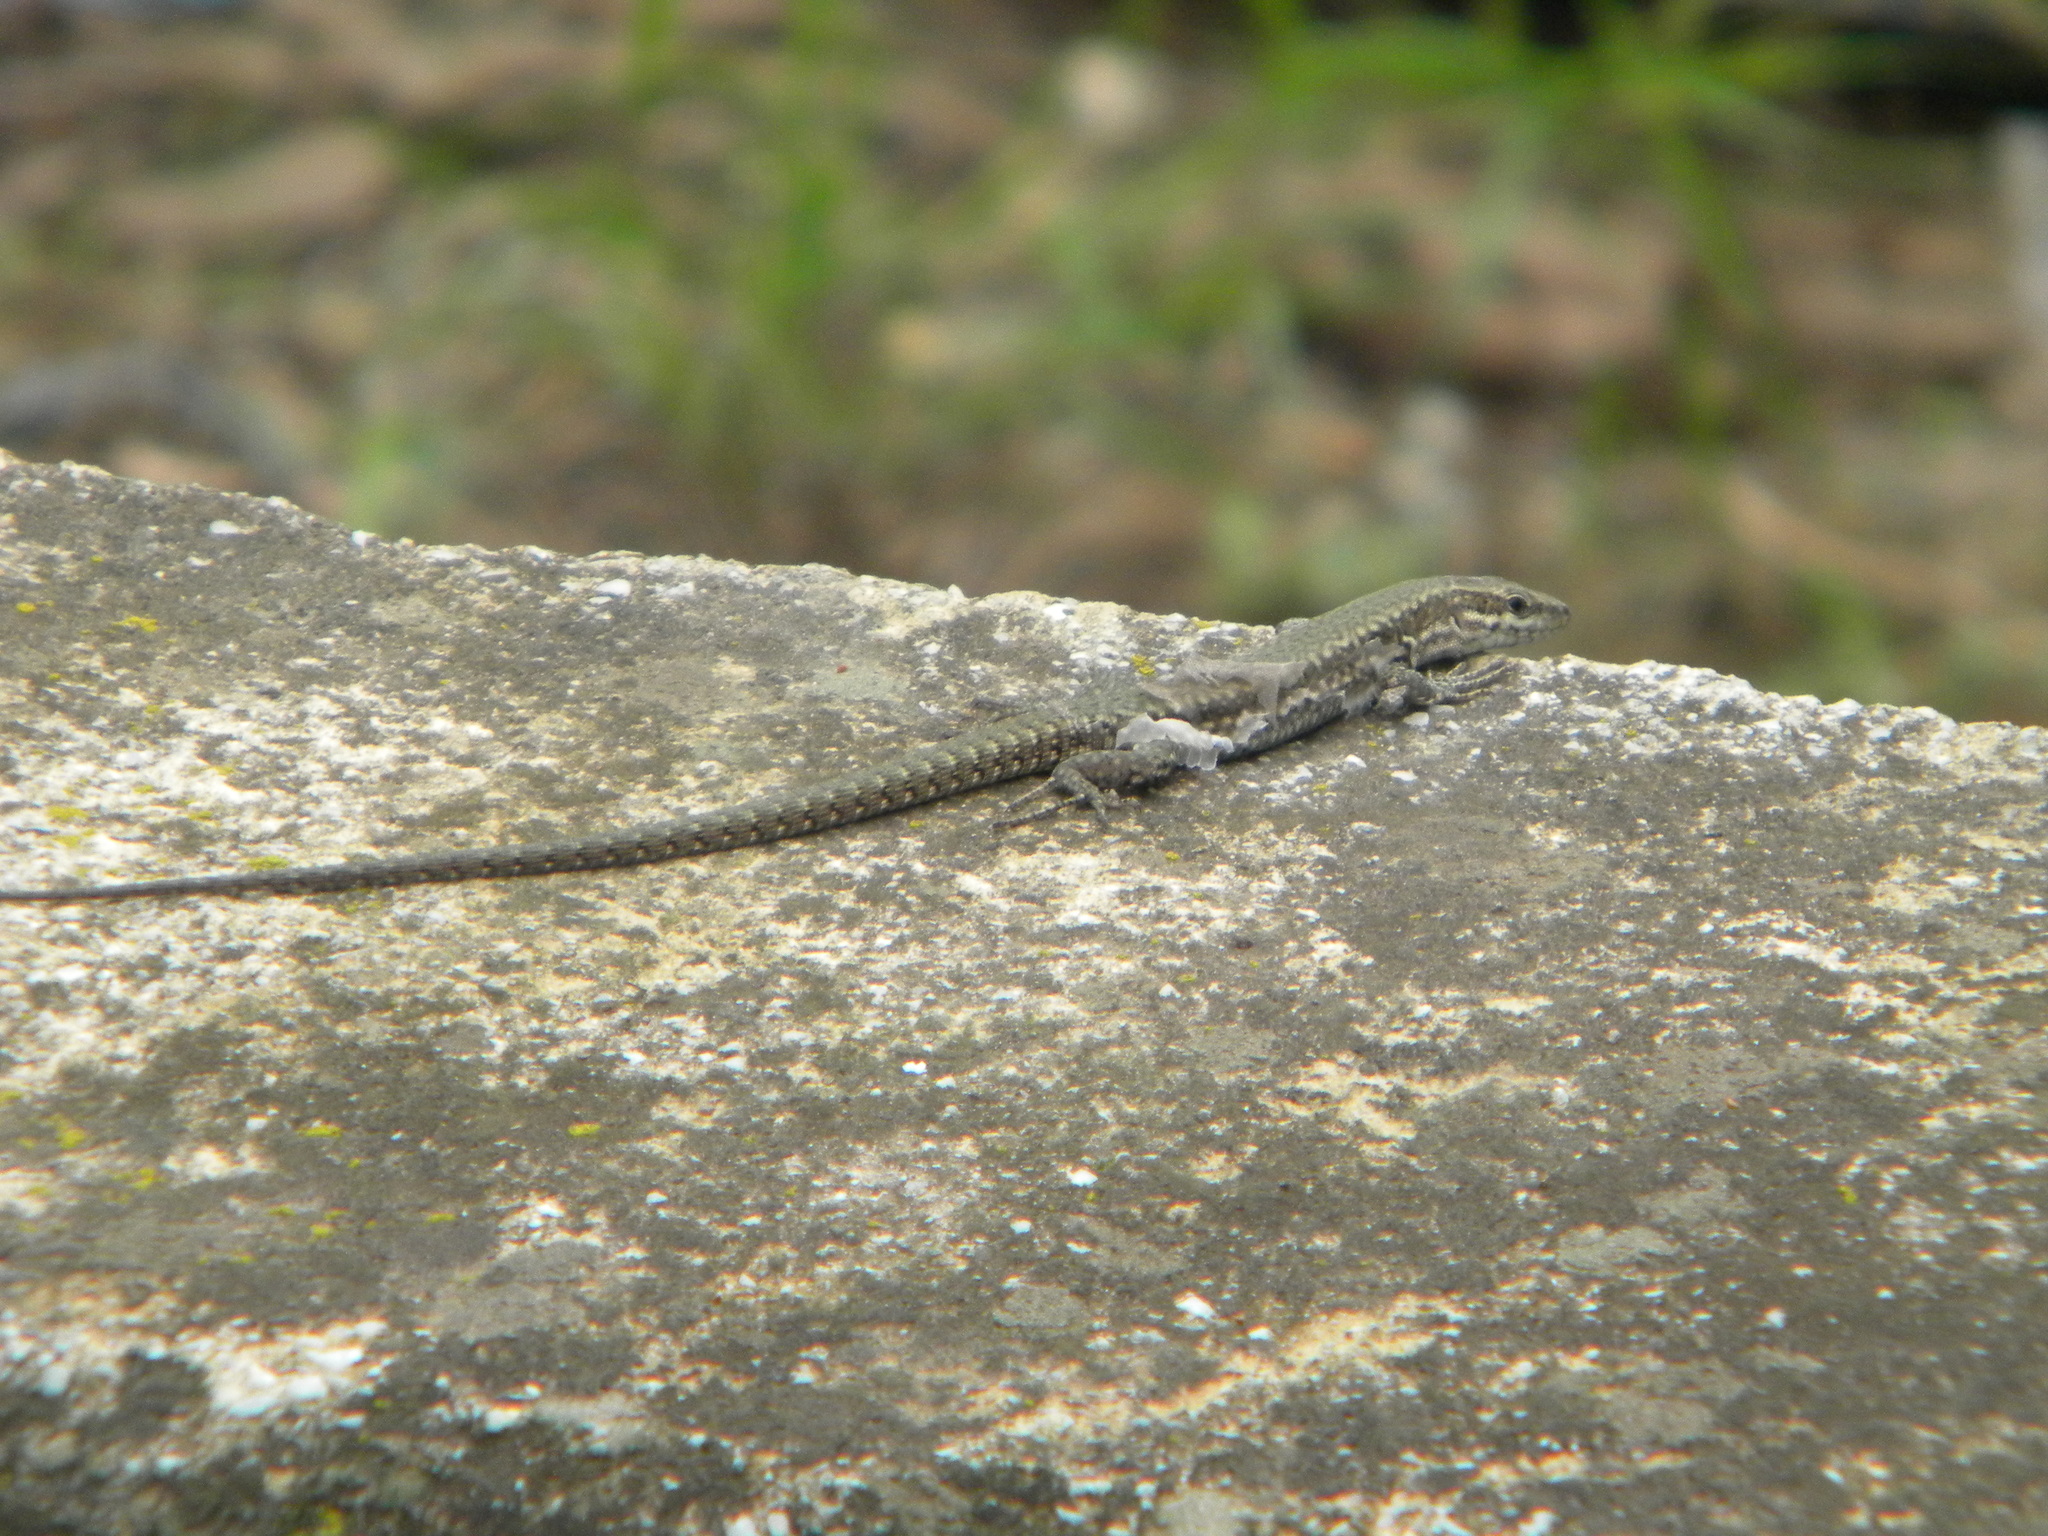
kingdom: Animalia
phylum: Chordata
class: Squamata
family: Lacertidae
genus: Podarcis
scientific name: Podarcis muralis
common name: Common wall lizard
